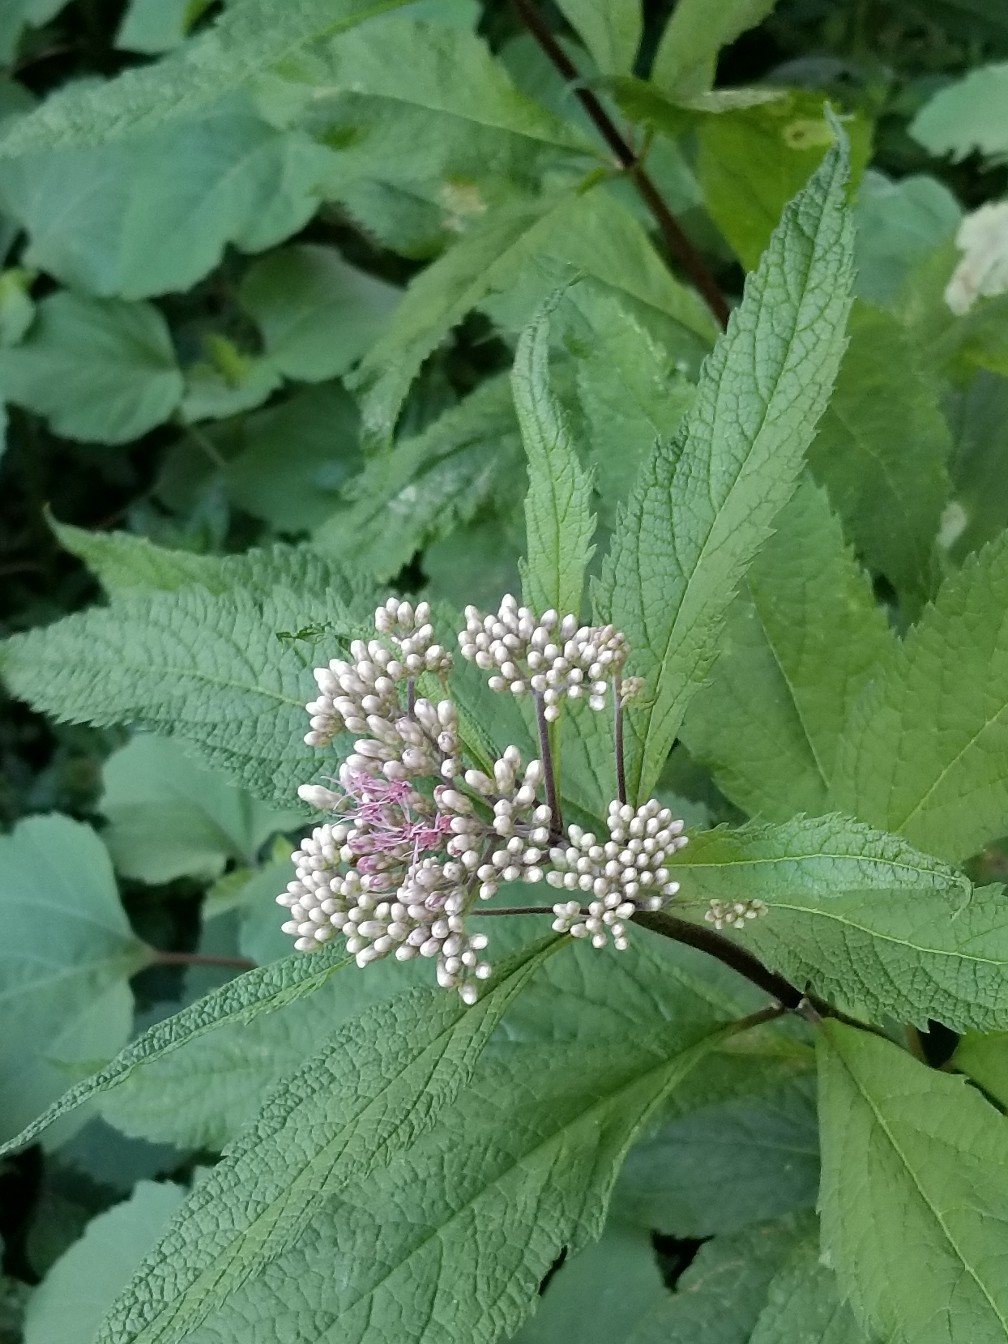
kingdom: Plantae
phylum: Tracheophyta
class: Magnoliopsida
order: Asterales
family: Asteraceae
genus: Eutrochium
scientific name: Eutrochium maculatum
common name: Spotted joe pye weed
